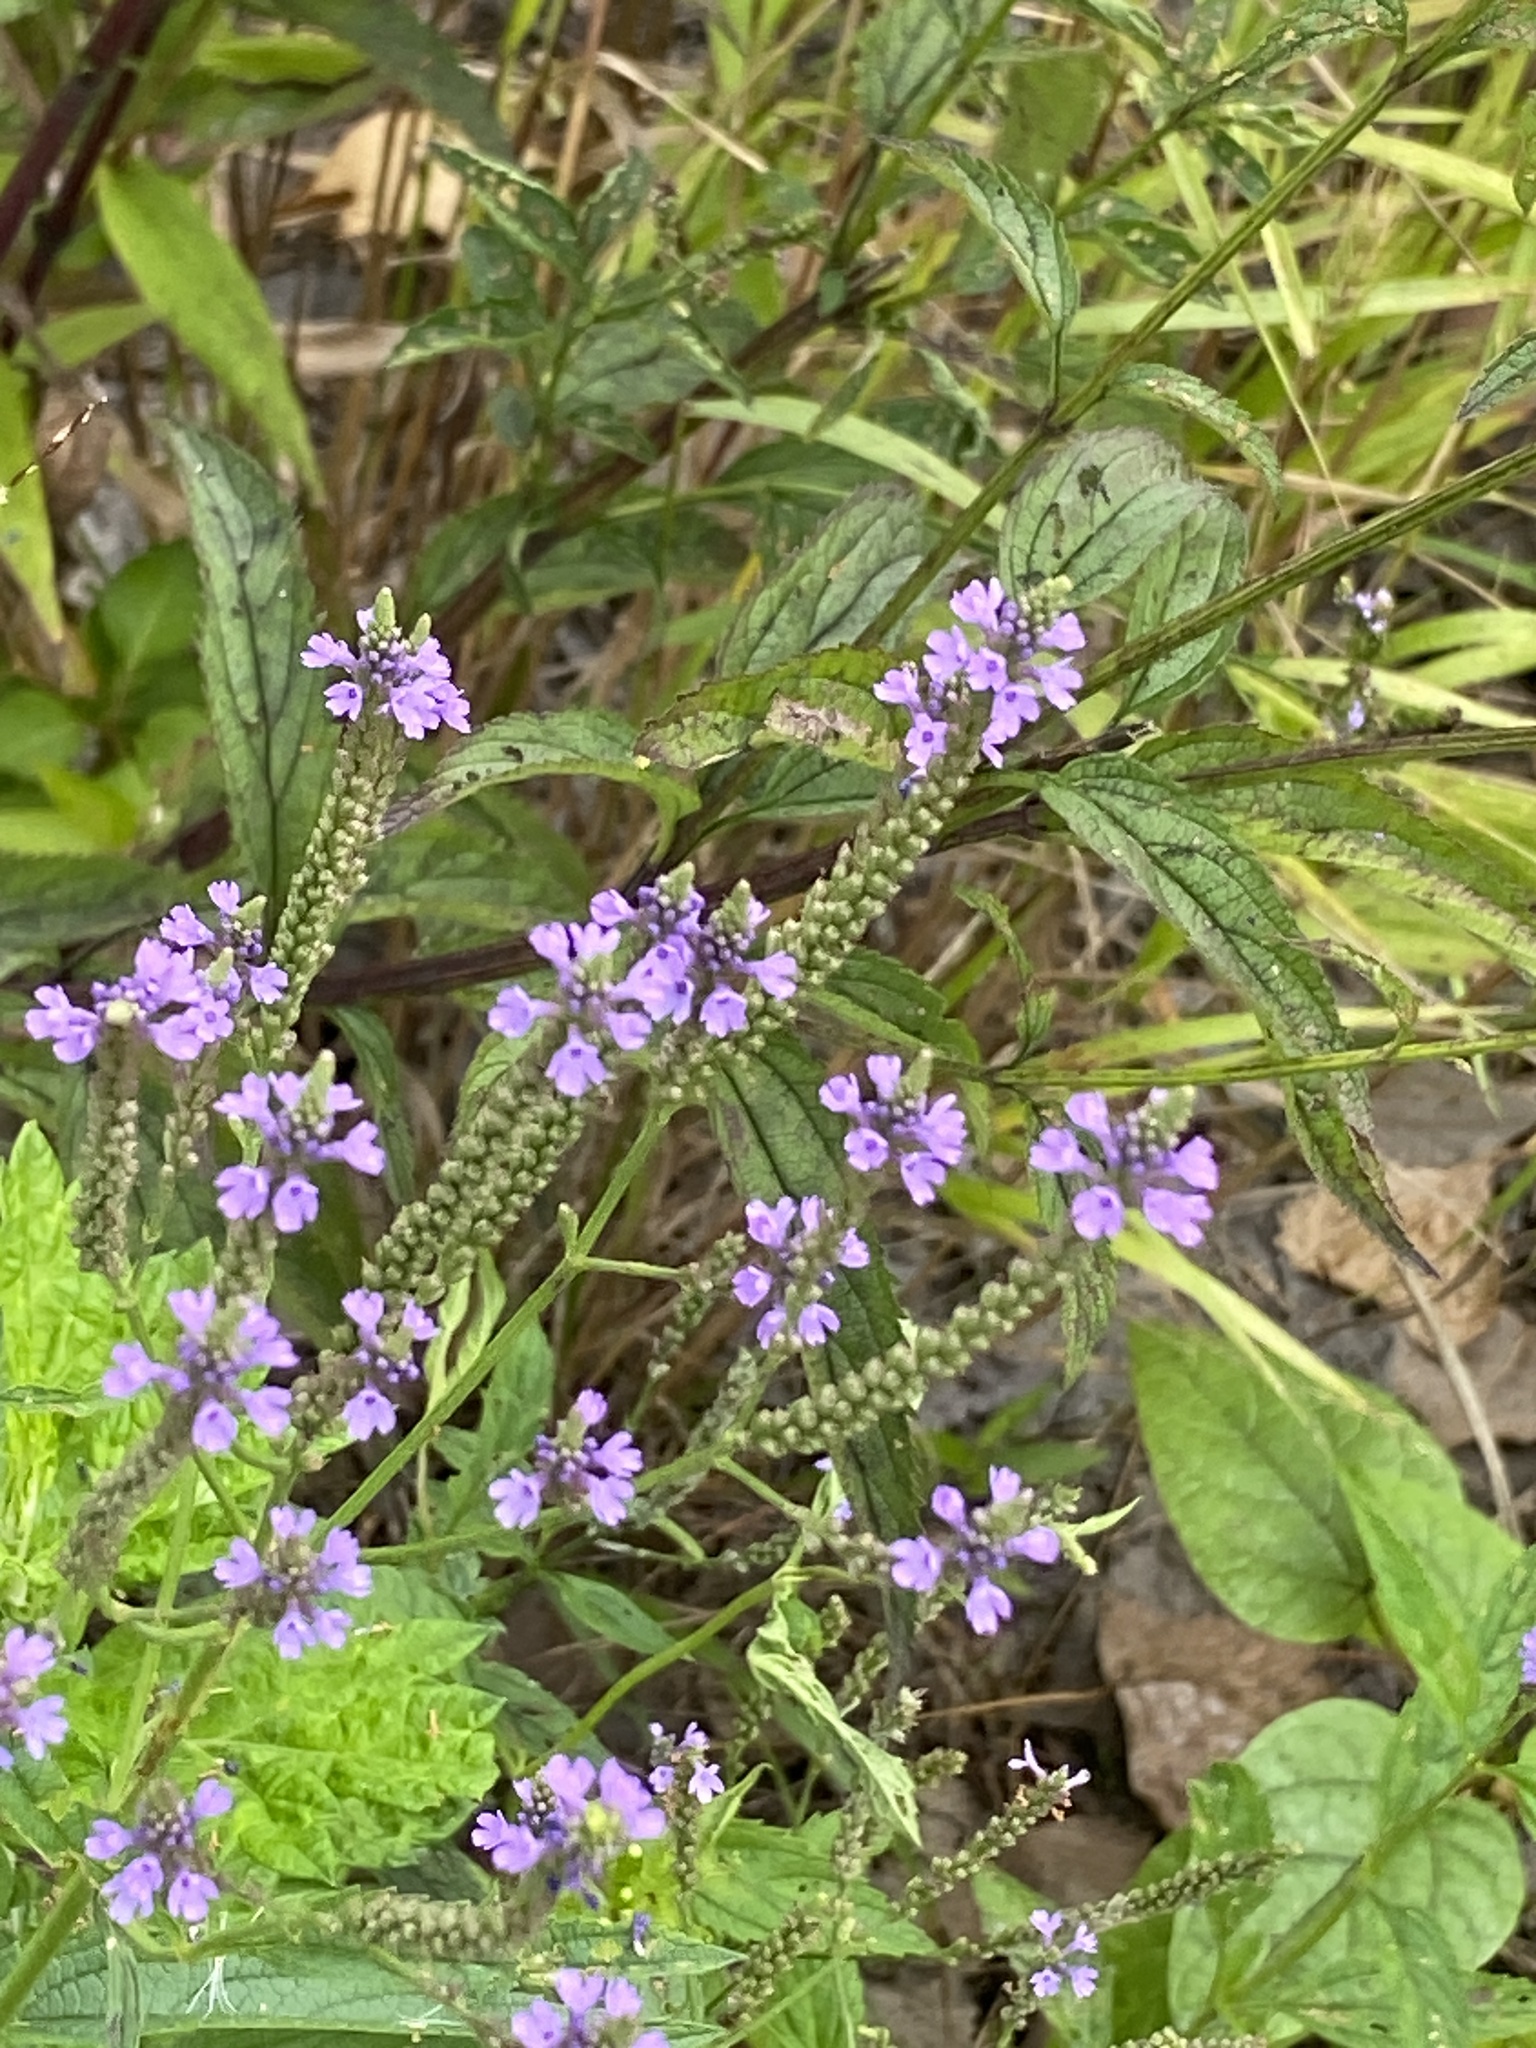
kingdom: Plantae
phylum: Tracheophyta
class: Magnoliopsida
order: Lamiales
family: Verbenaceae
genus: Verbena
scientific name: Verbena hastata
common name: American blue vervain
